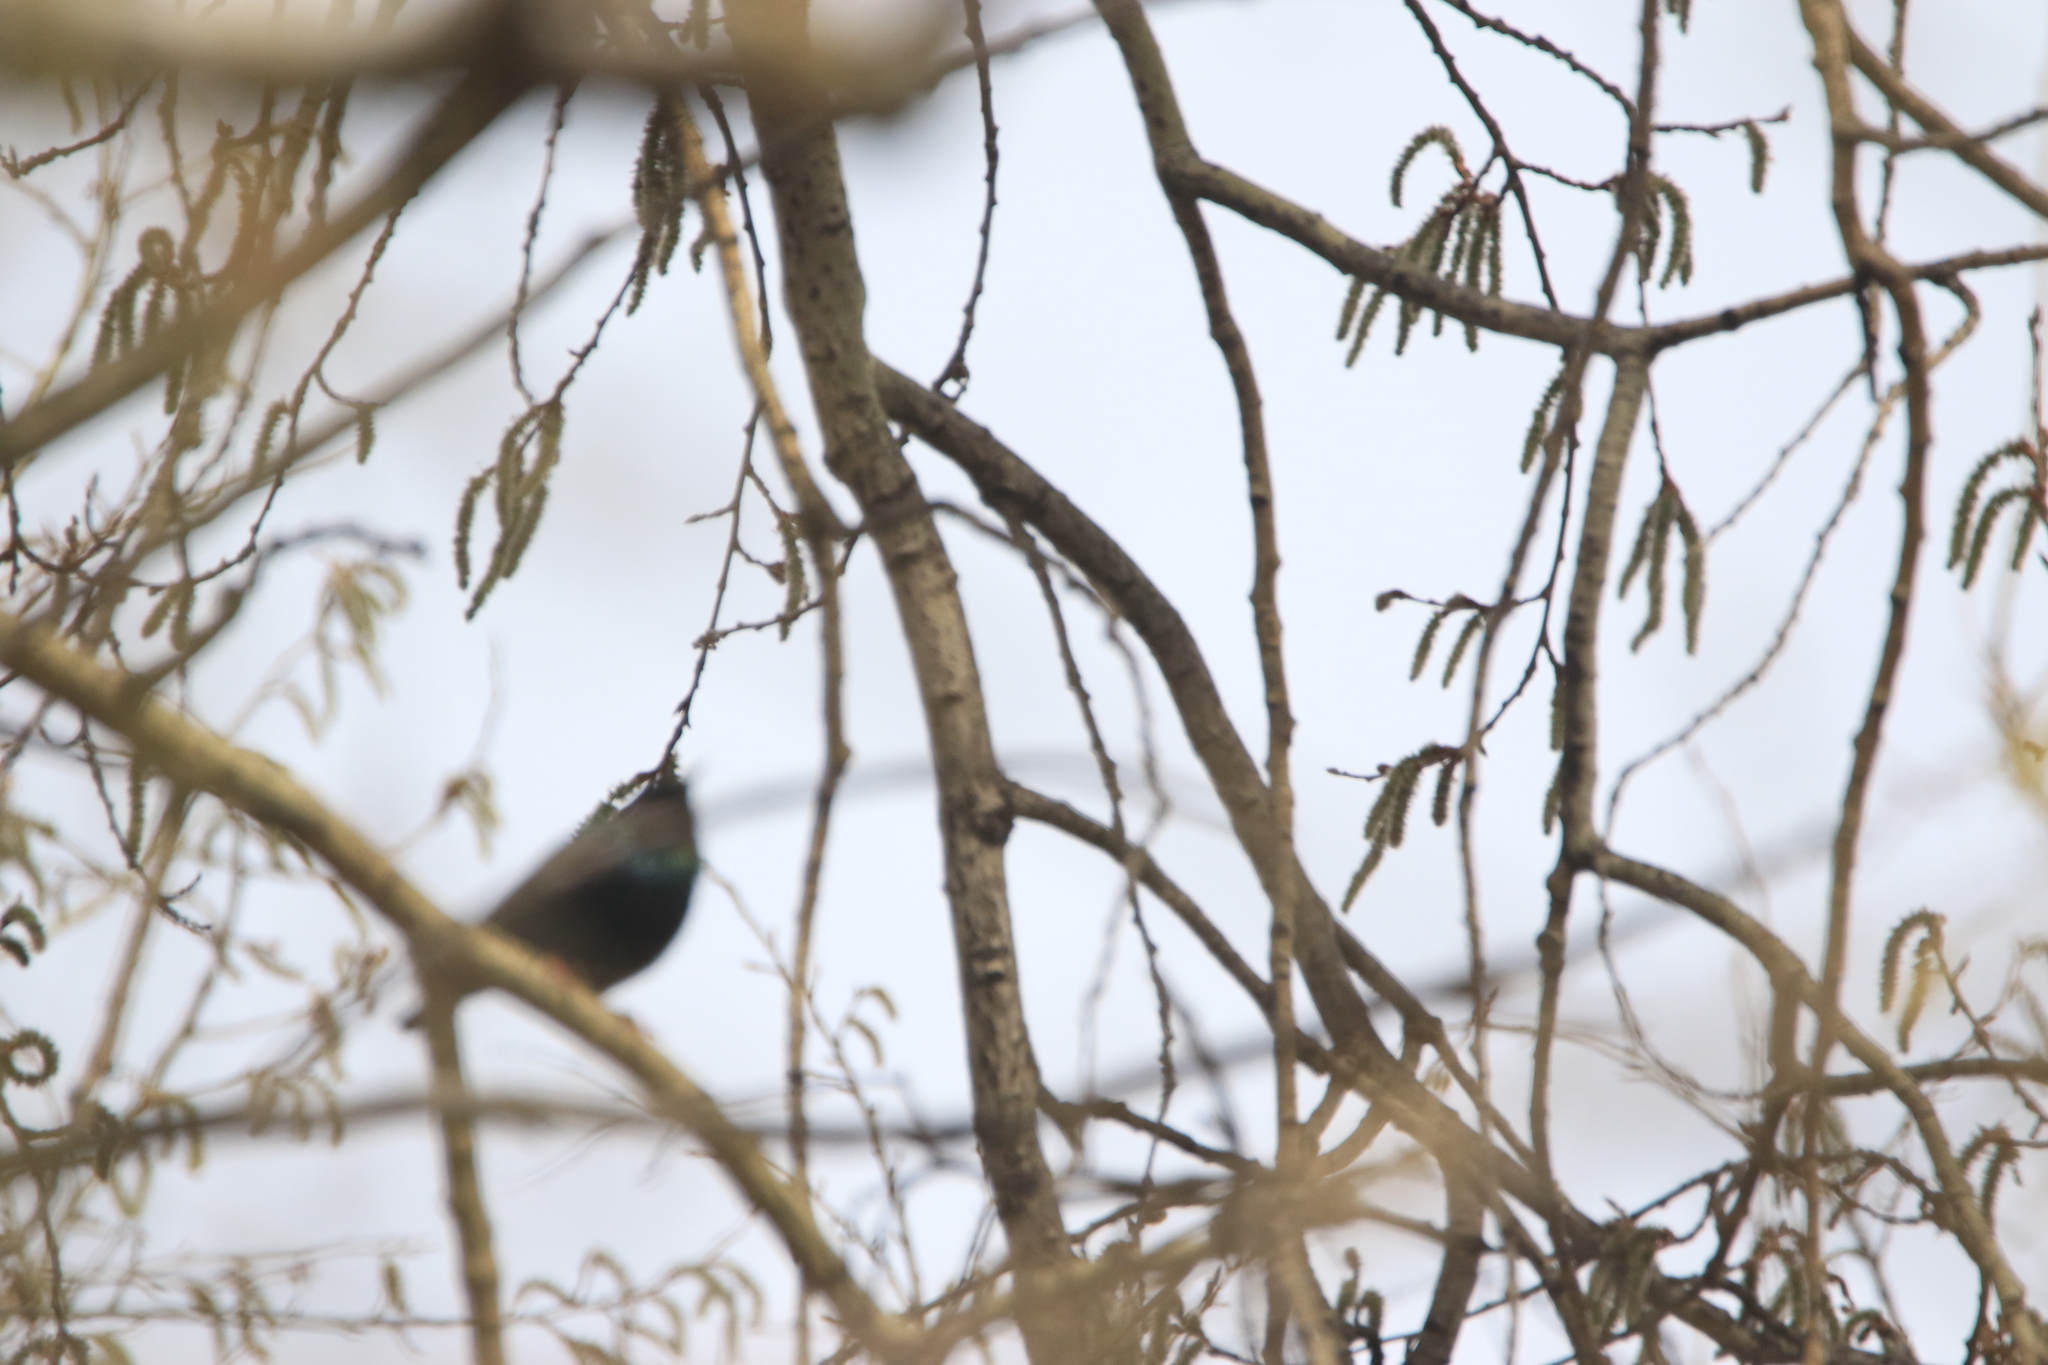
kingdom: Animalia
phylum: Chordata
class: Aves
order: Passeriformes
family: Sturnidae
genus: Sturnus
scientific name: Sturnus vulgaris
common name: Common starling
